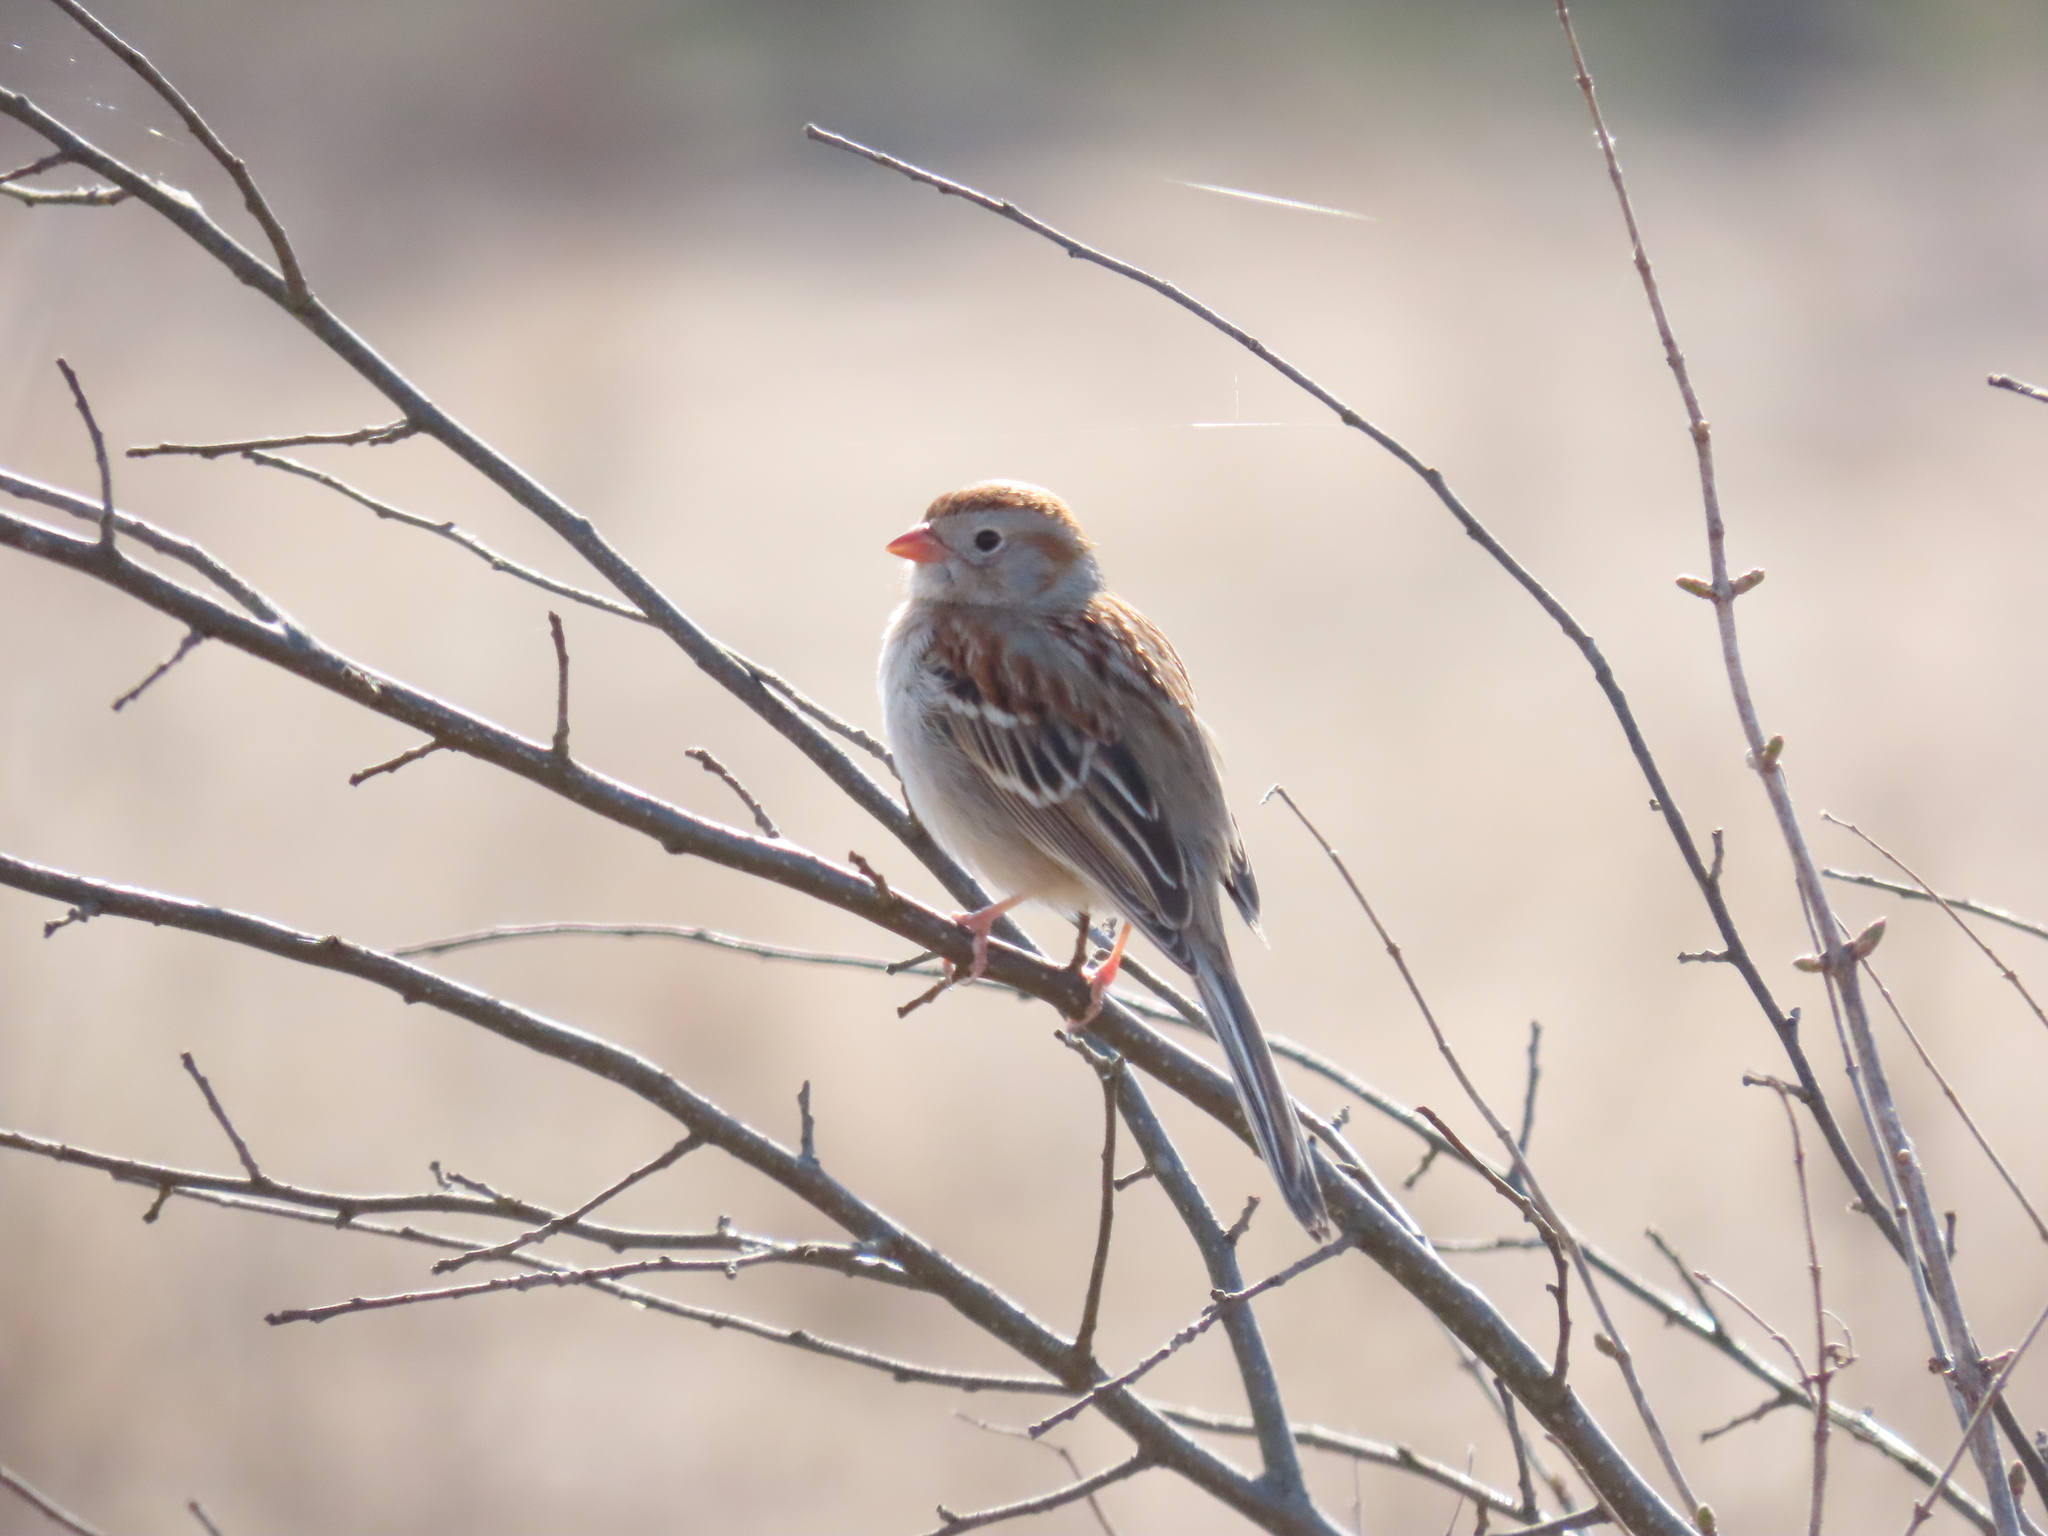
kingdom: Animalia
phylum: Chordata
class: Aves
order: Passeriformes
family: Passerellidae
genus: Spizella
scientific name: Spizella pusilla
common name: Field sparrow
